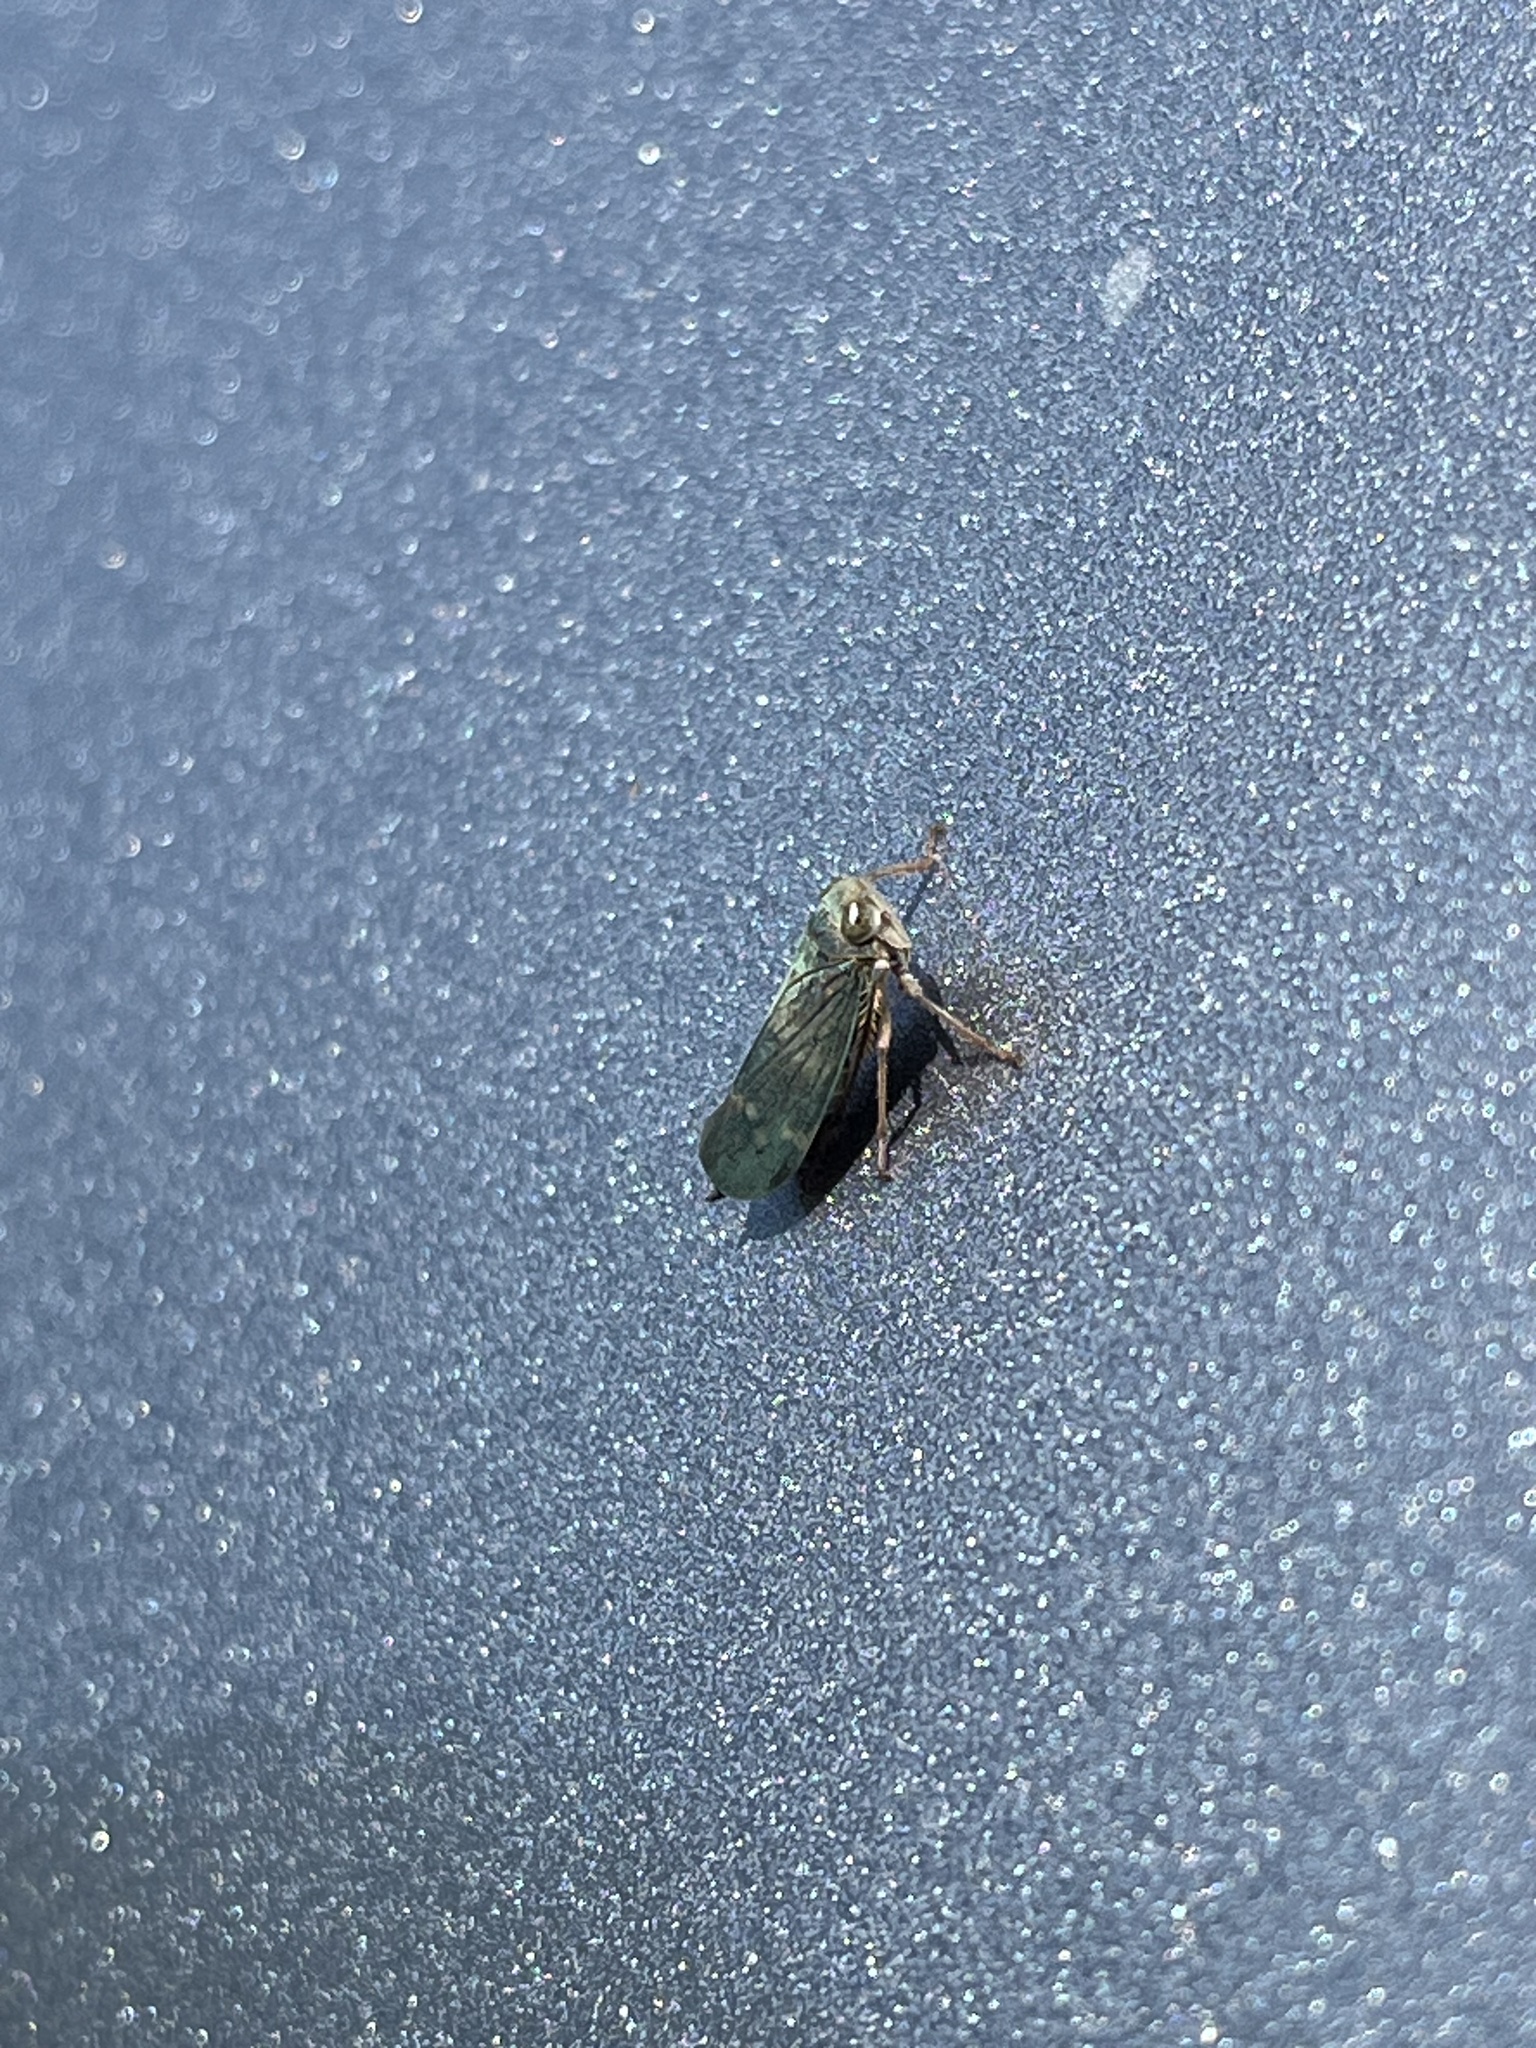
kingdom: Animalia
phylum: Arthropoda
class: Insecta
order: Hemiptera
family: Cicadellidae
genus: Jikradia
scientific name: Jikradia olitoria
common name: Coppery leafhopper
